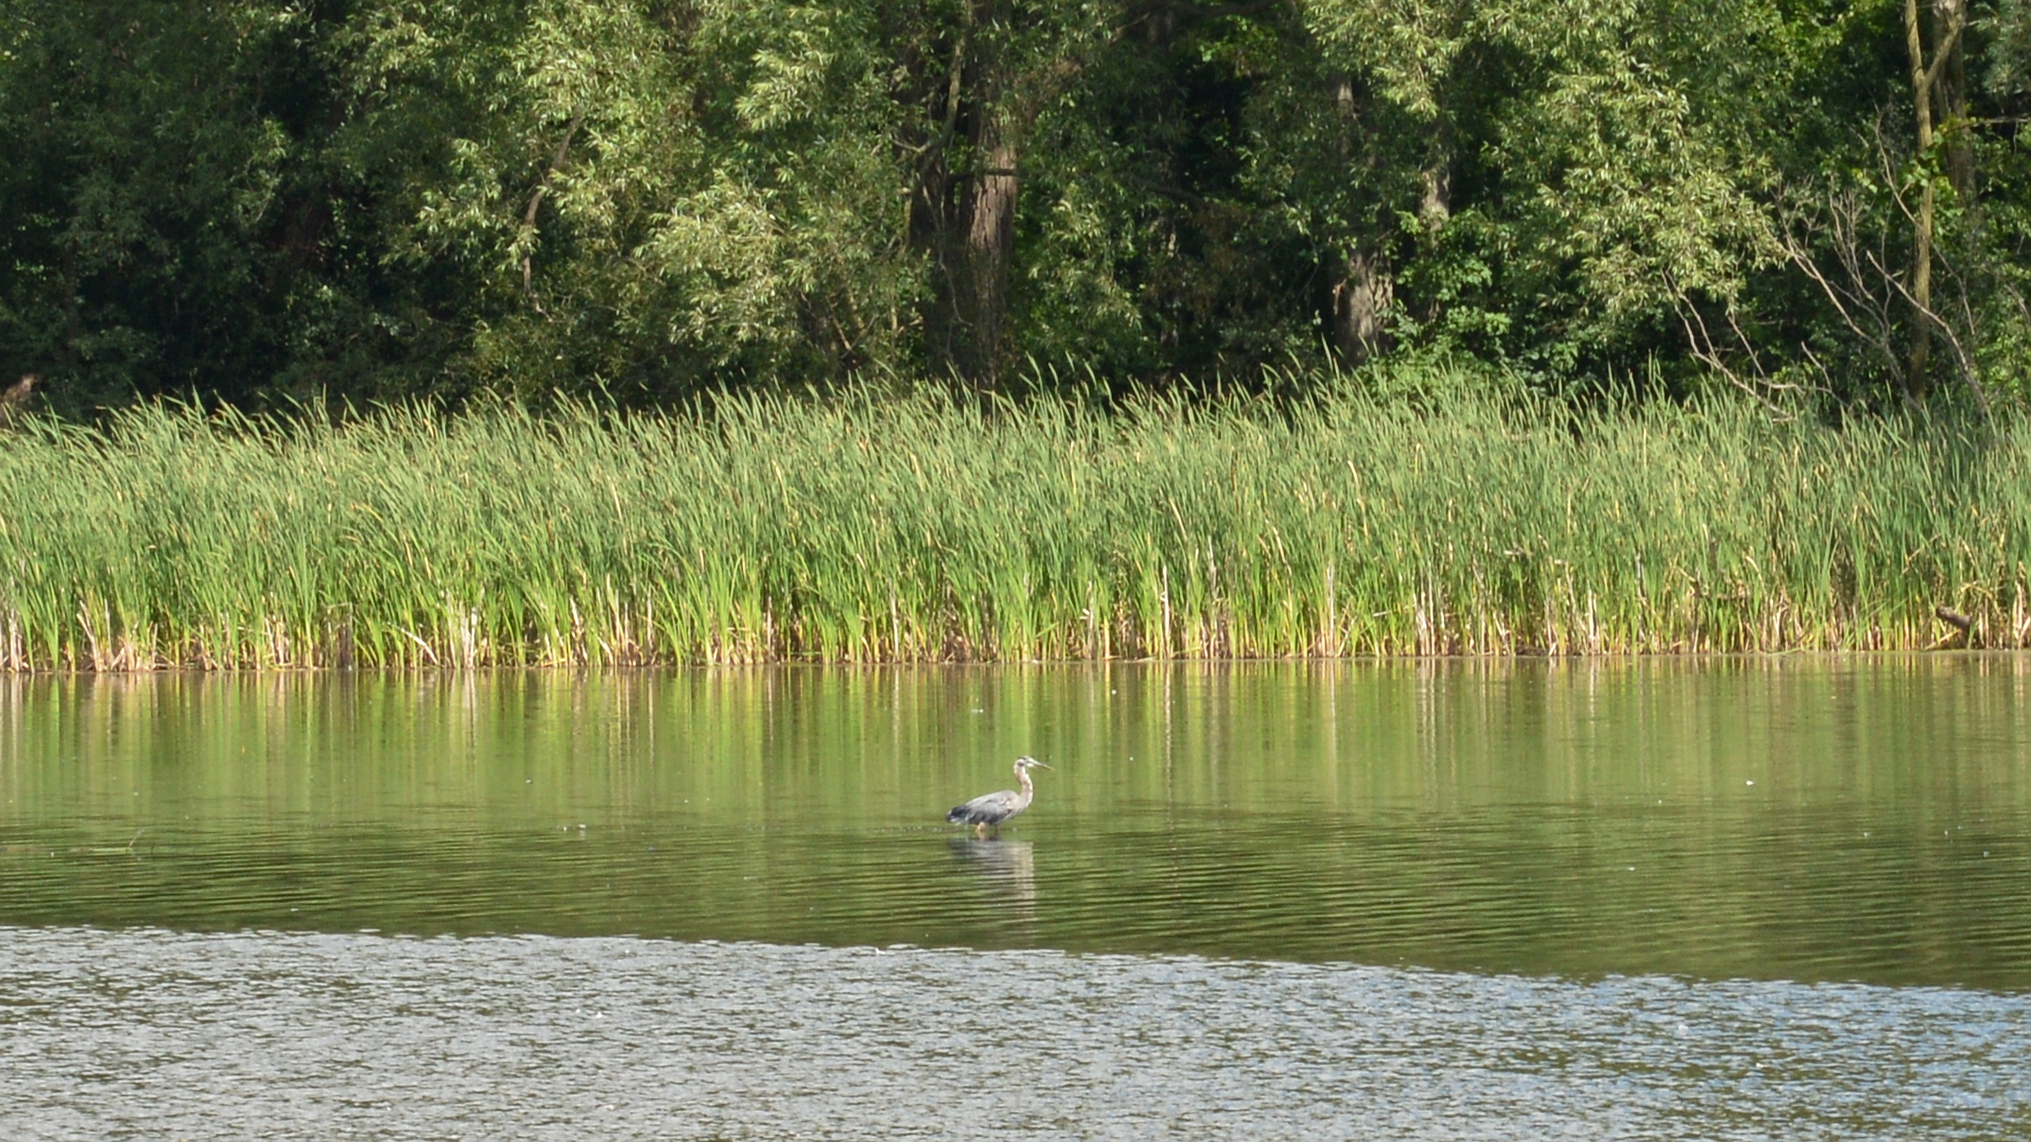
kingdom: Animalia
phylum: Chordata
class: Aves
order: Pelecaniformes
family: Ardeidae
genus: Ardea
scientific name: Ardea herodias
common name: Great blue heron
